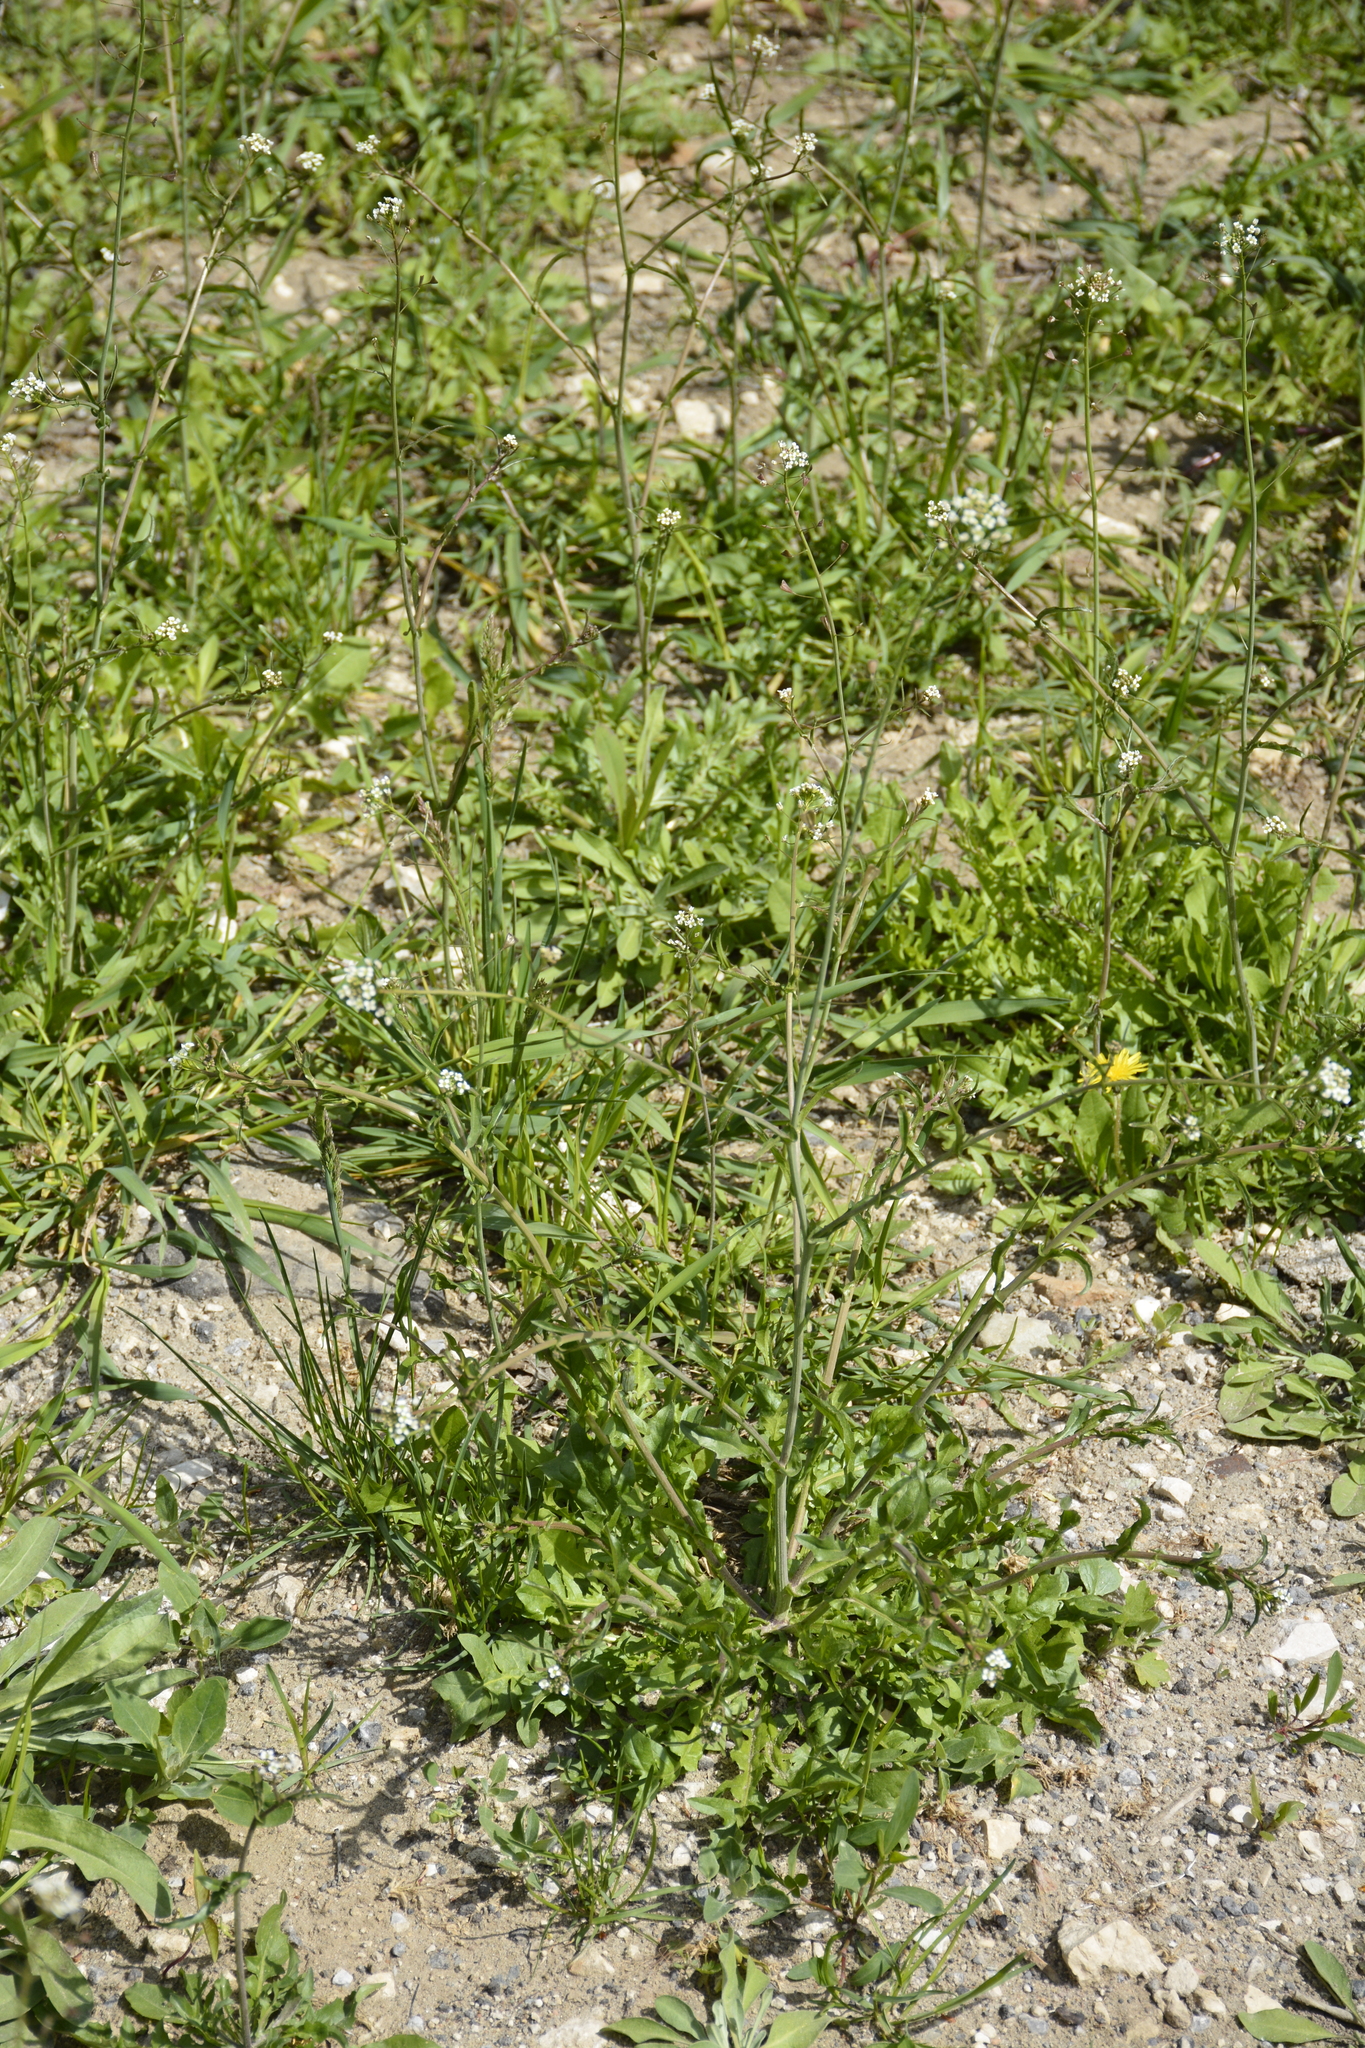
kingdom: Plantae
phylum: Tracheophyta
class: Magnoliopsida
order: Brassicales
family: Brassicaceae
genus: Capsella
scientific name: Capsella bursa-pastoris
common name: Shepherd's purse
